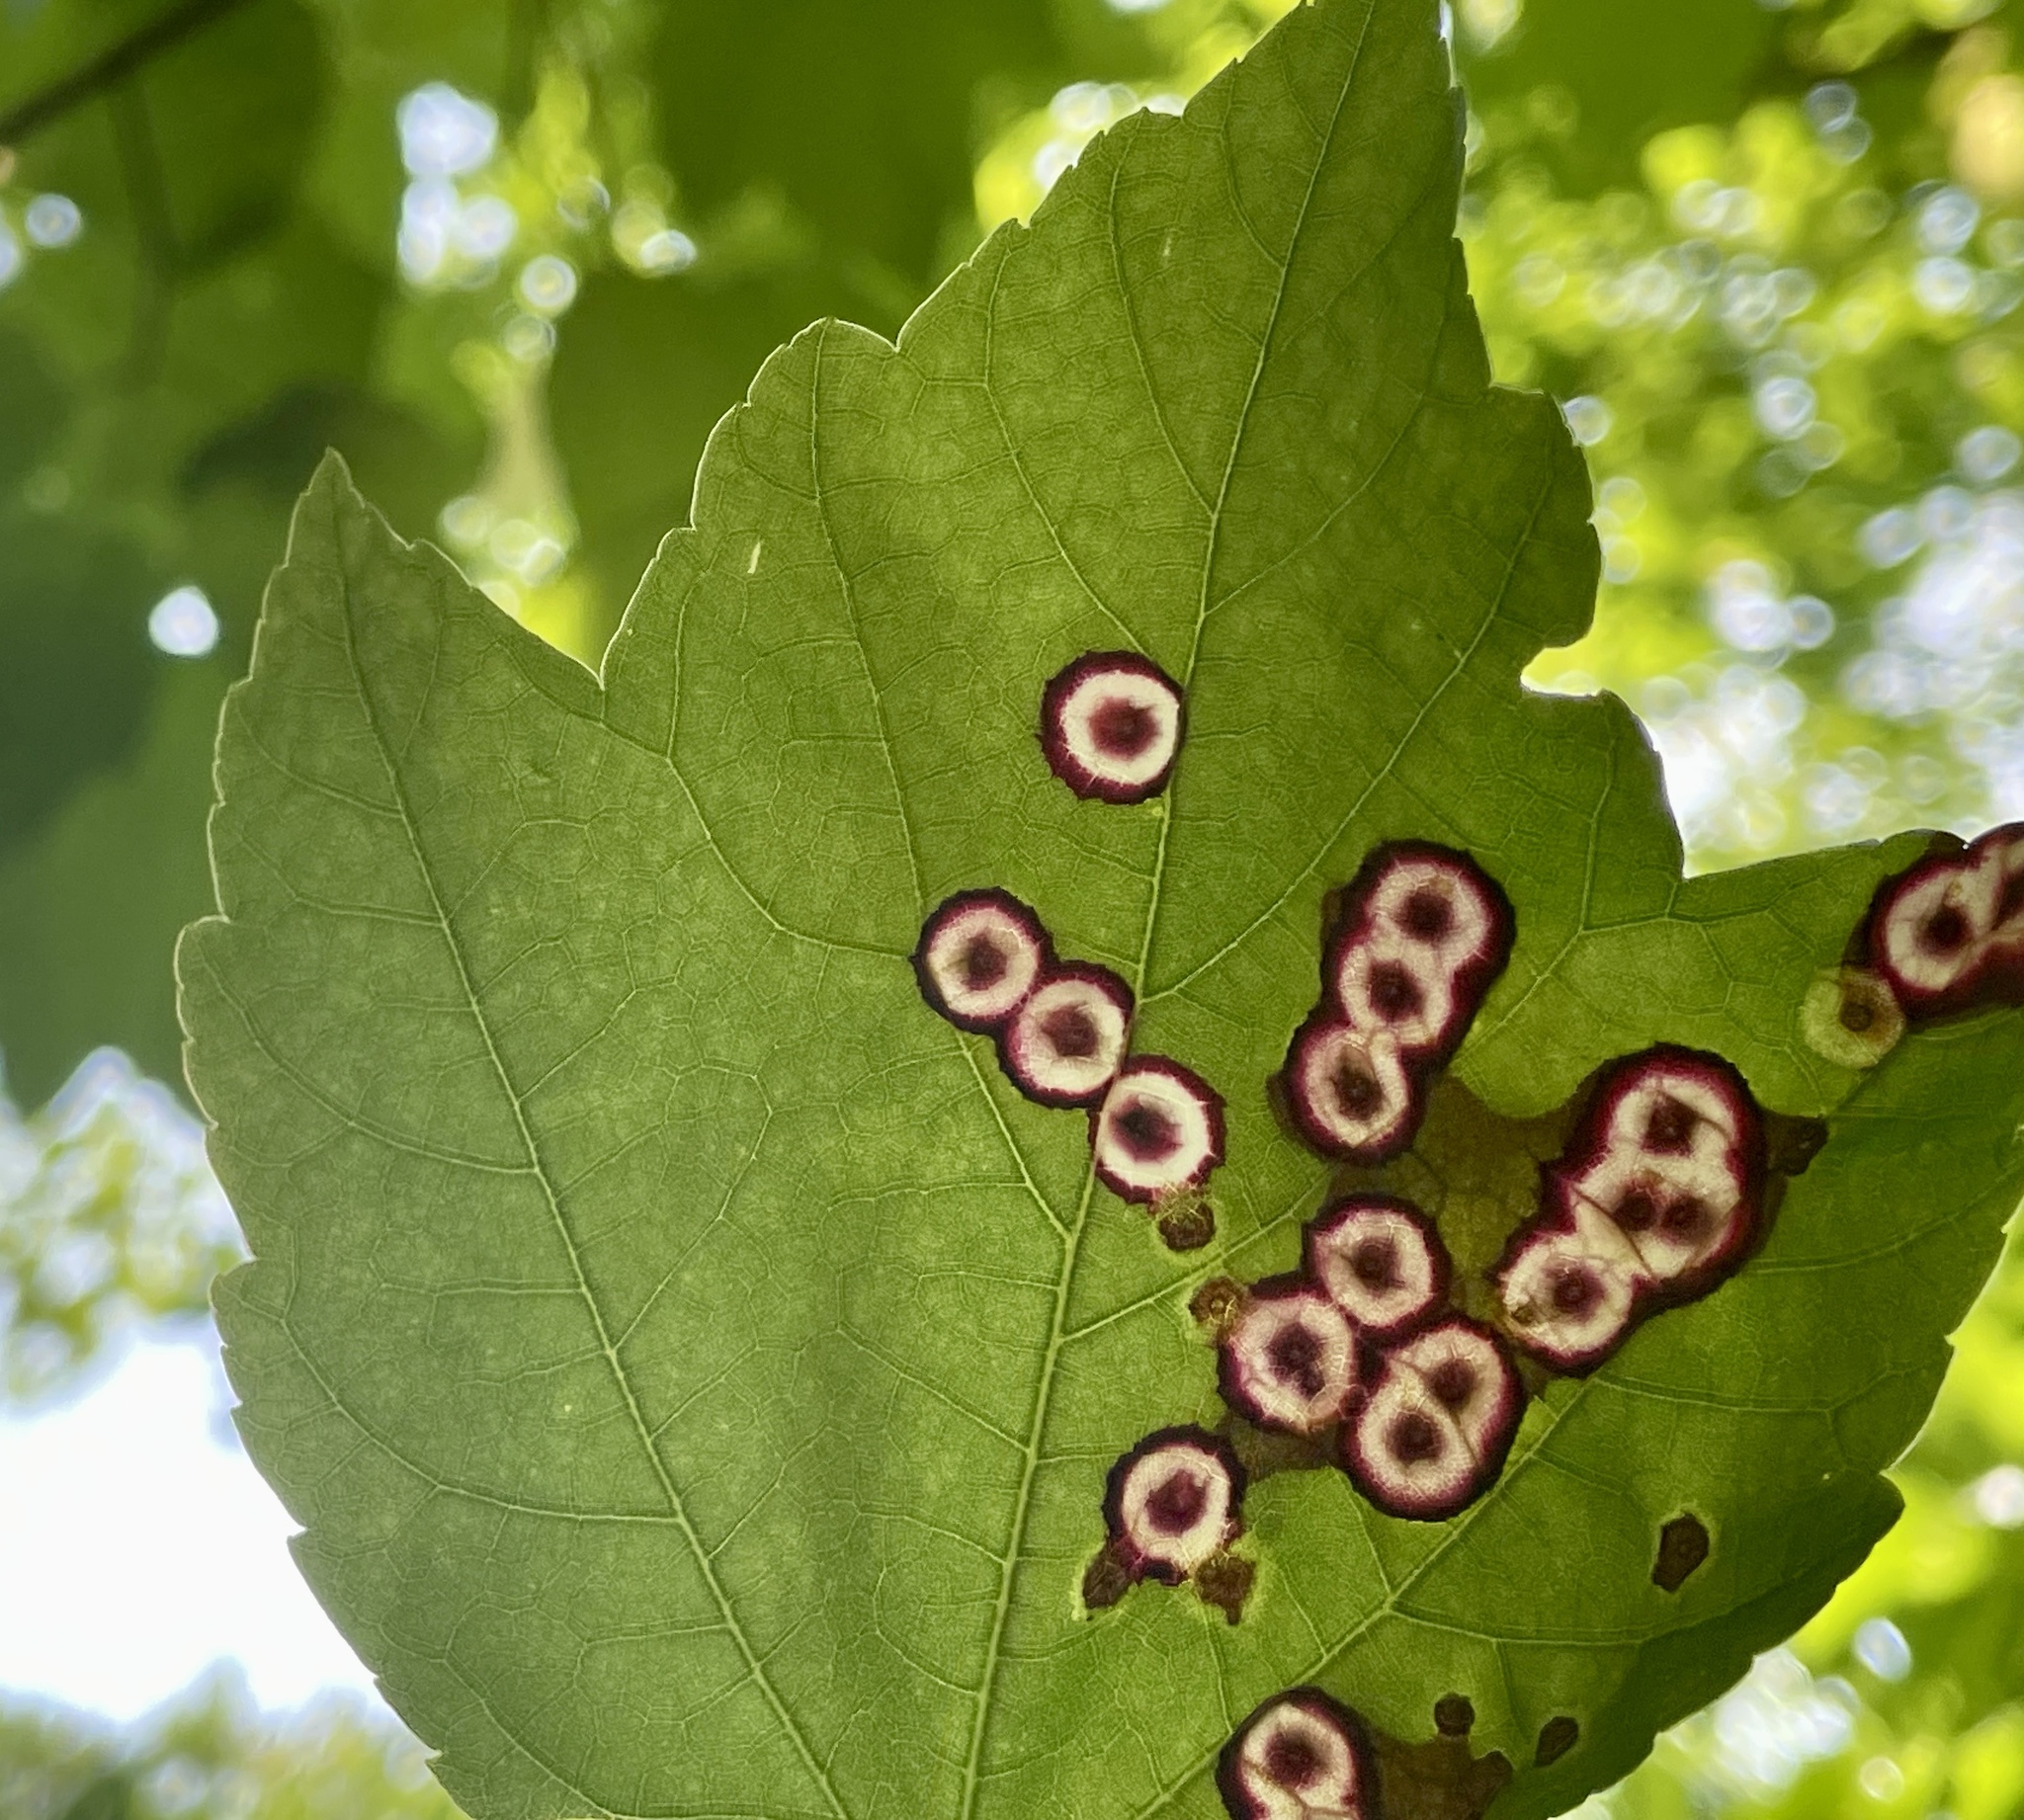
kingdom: Animalia
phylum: Arthropoda
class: Insecta
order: Diptera
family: Cecidomyiidae
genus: Acericecis
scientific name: Acericecis ocellaris
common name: Ocellate gall midge
